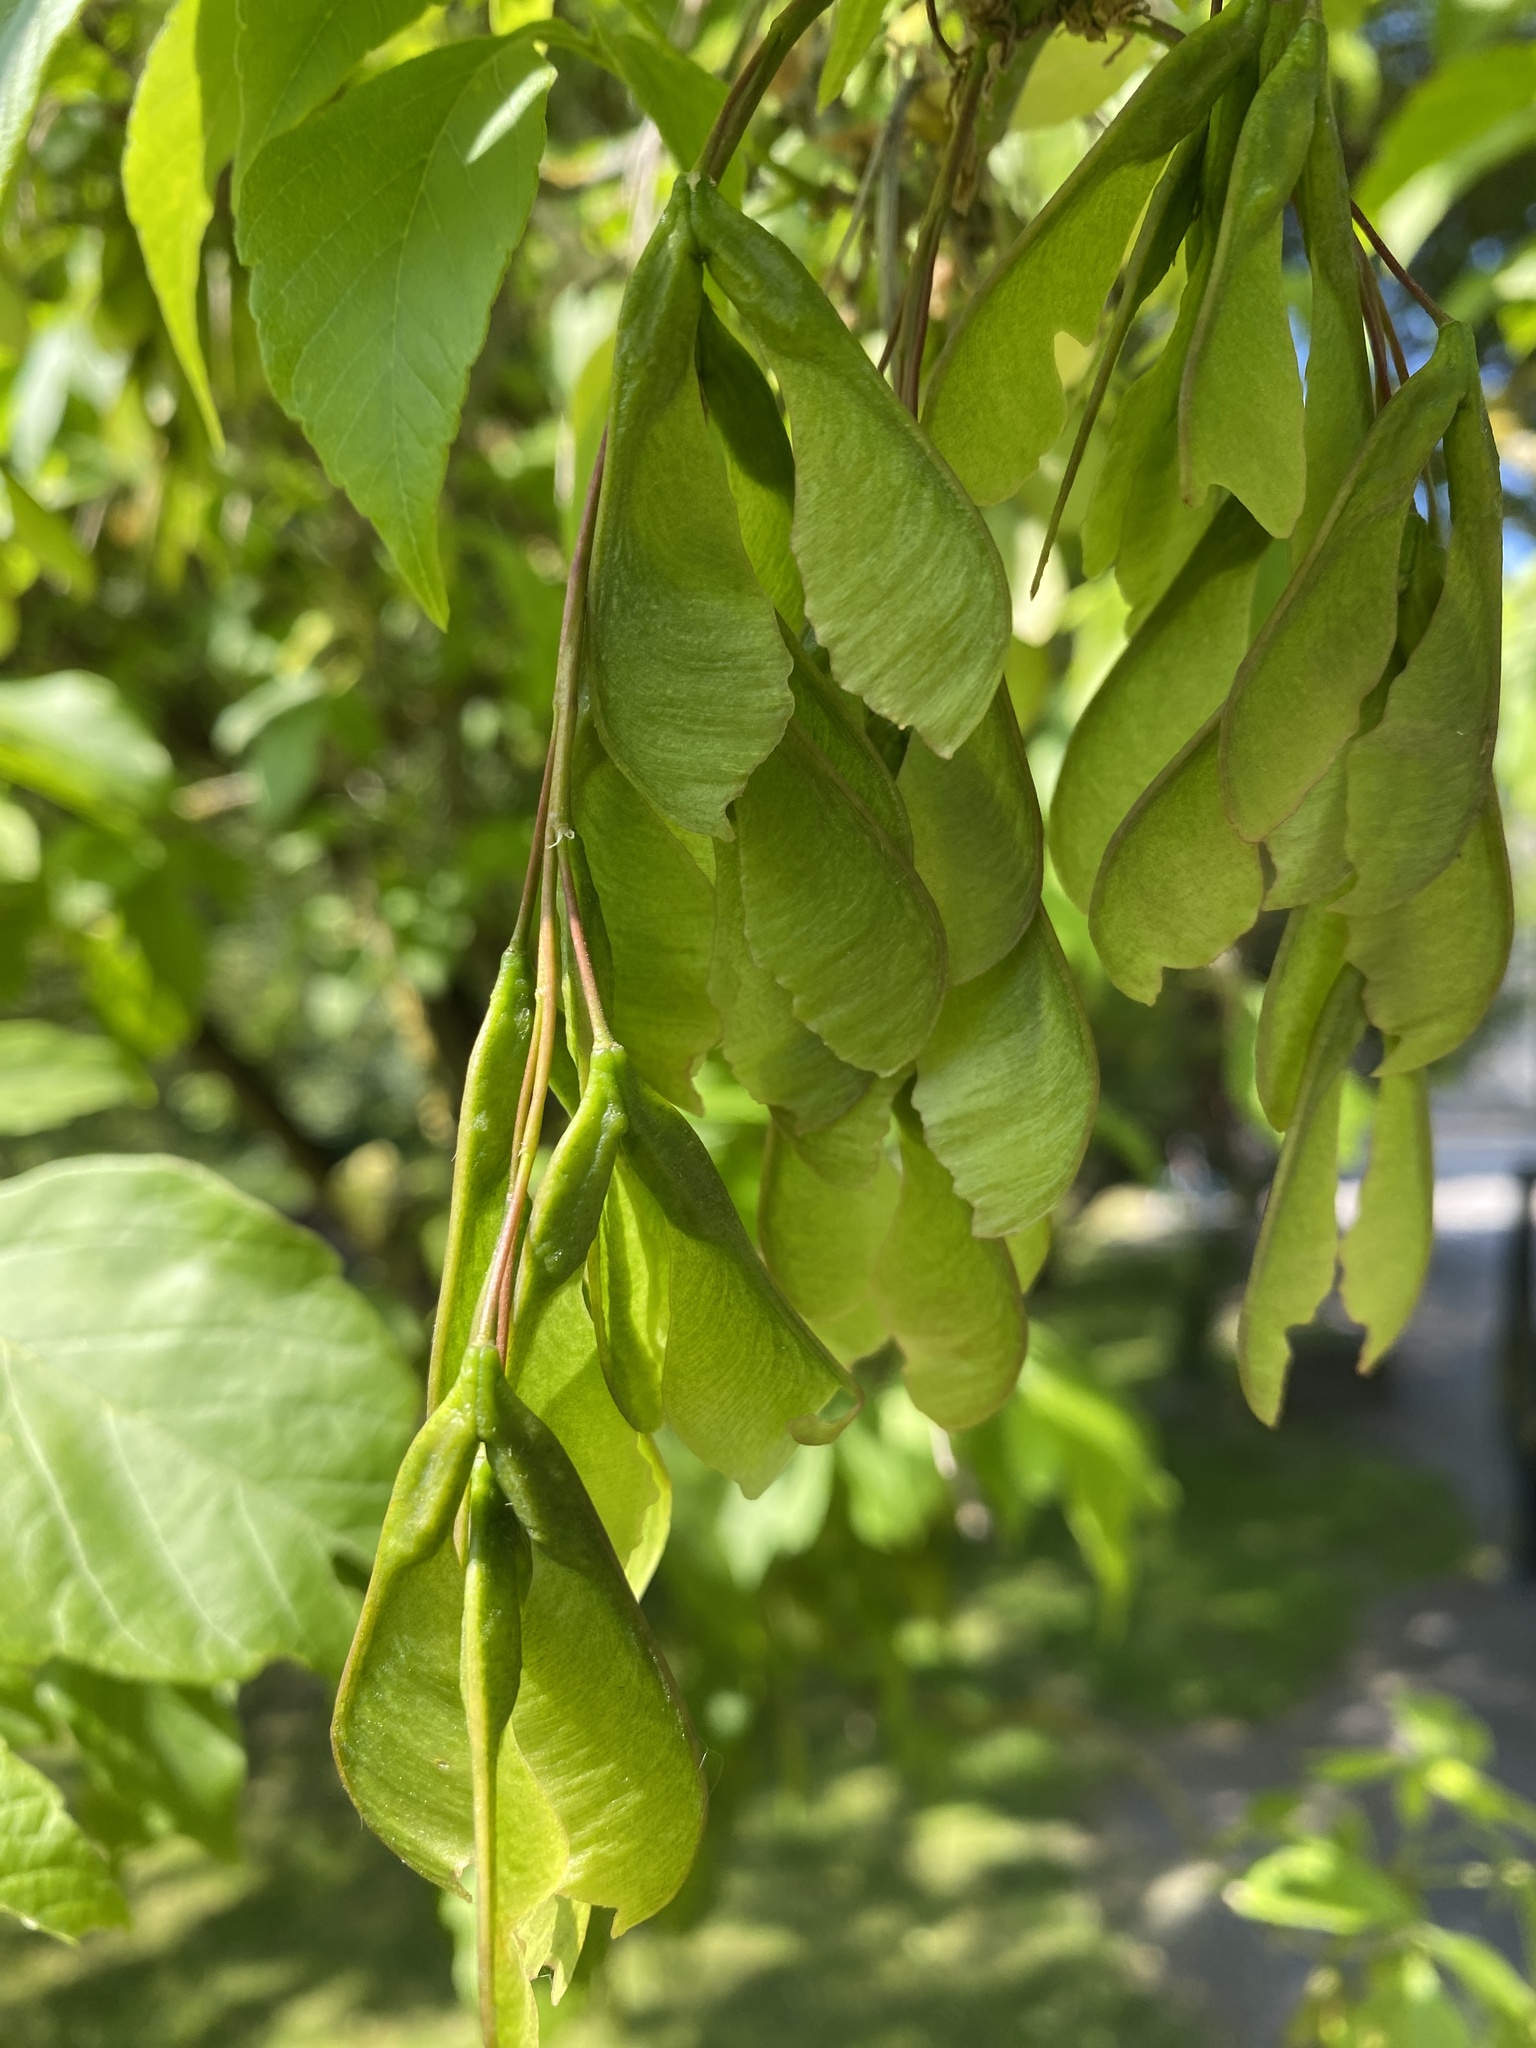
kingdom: Plantae
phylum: Tracheophyta
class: Magnoliopsida
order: Sapindales
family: Sapindaceae
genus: Acer
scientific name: Acer negundo
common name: Ashleaf maple
